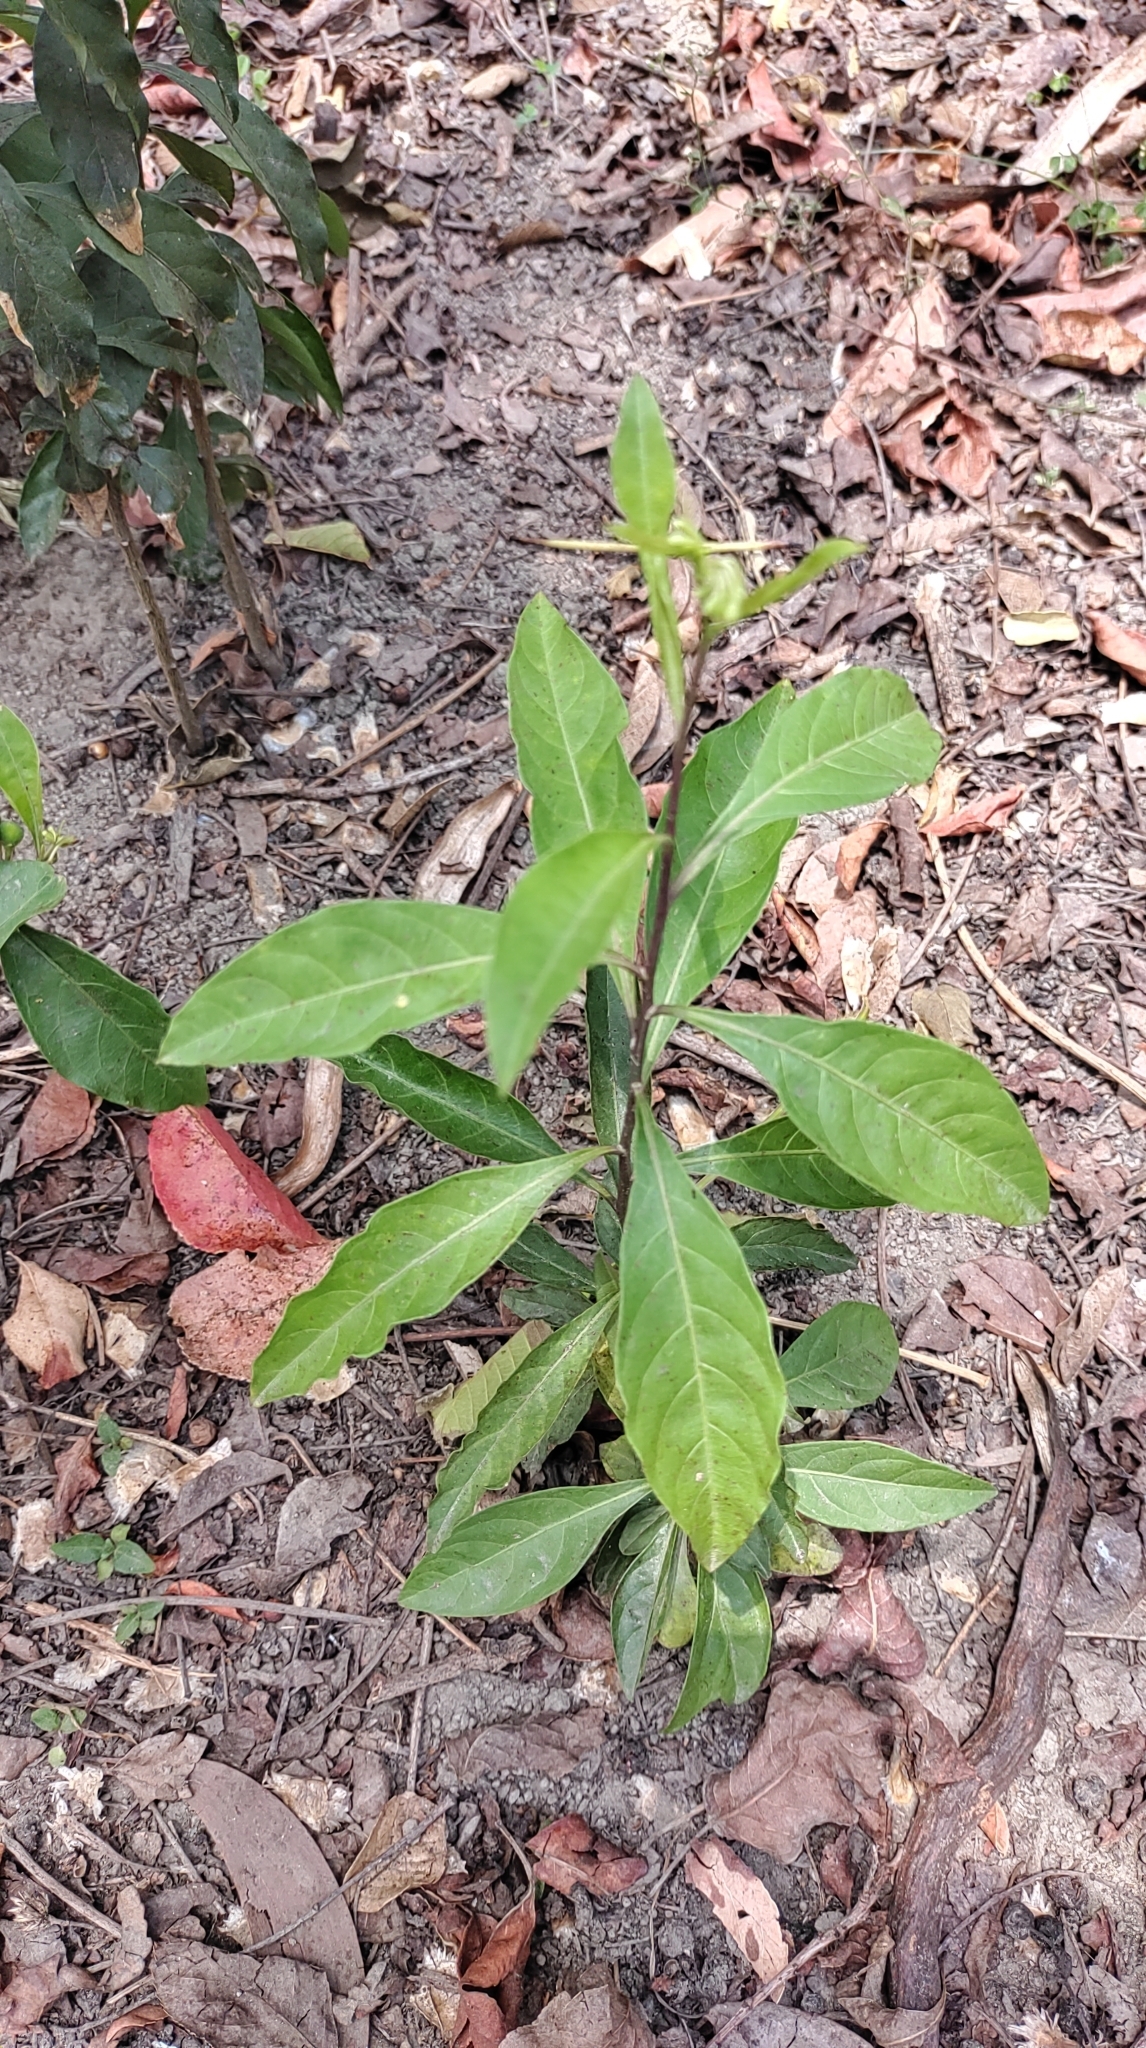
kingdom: Plantae
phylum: Tracheophyta
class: Magnoliopsida
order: Solanales
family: Solanaceae
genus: Solanum
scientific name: Solanum diphyllum
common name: Twoleaf nightshade
